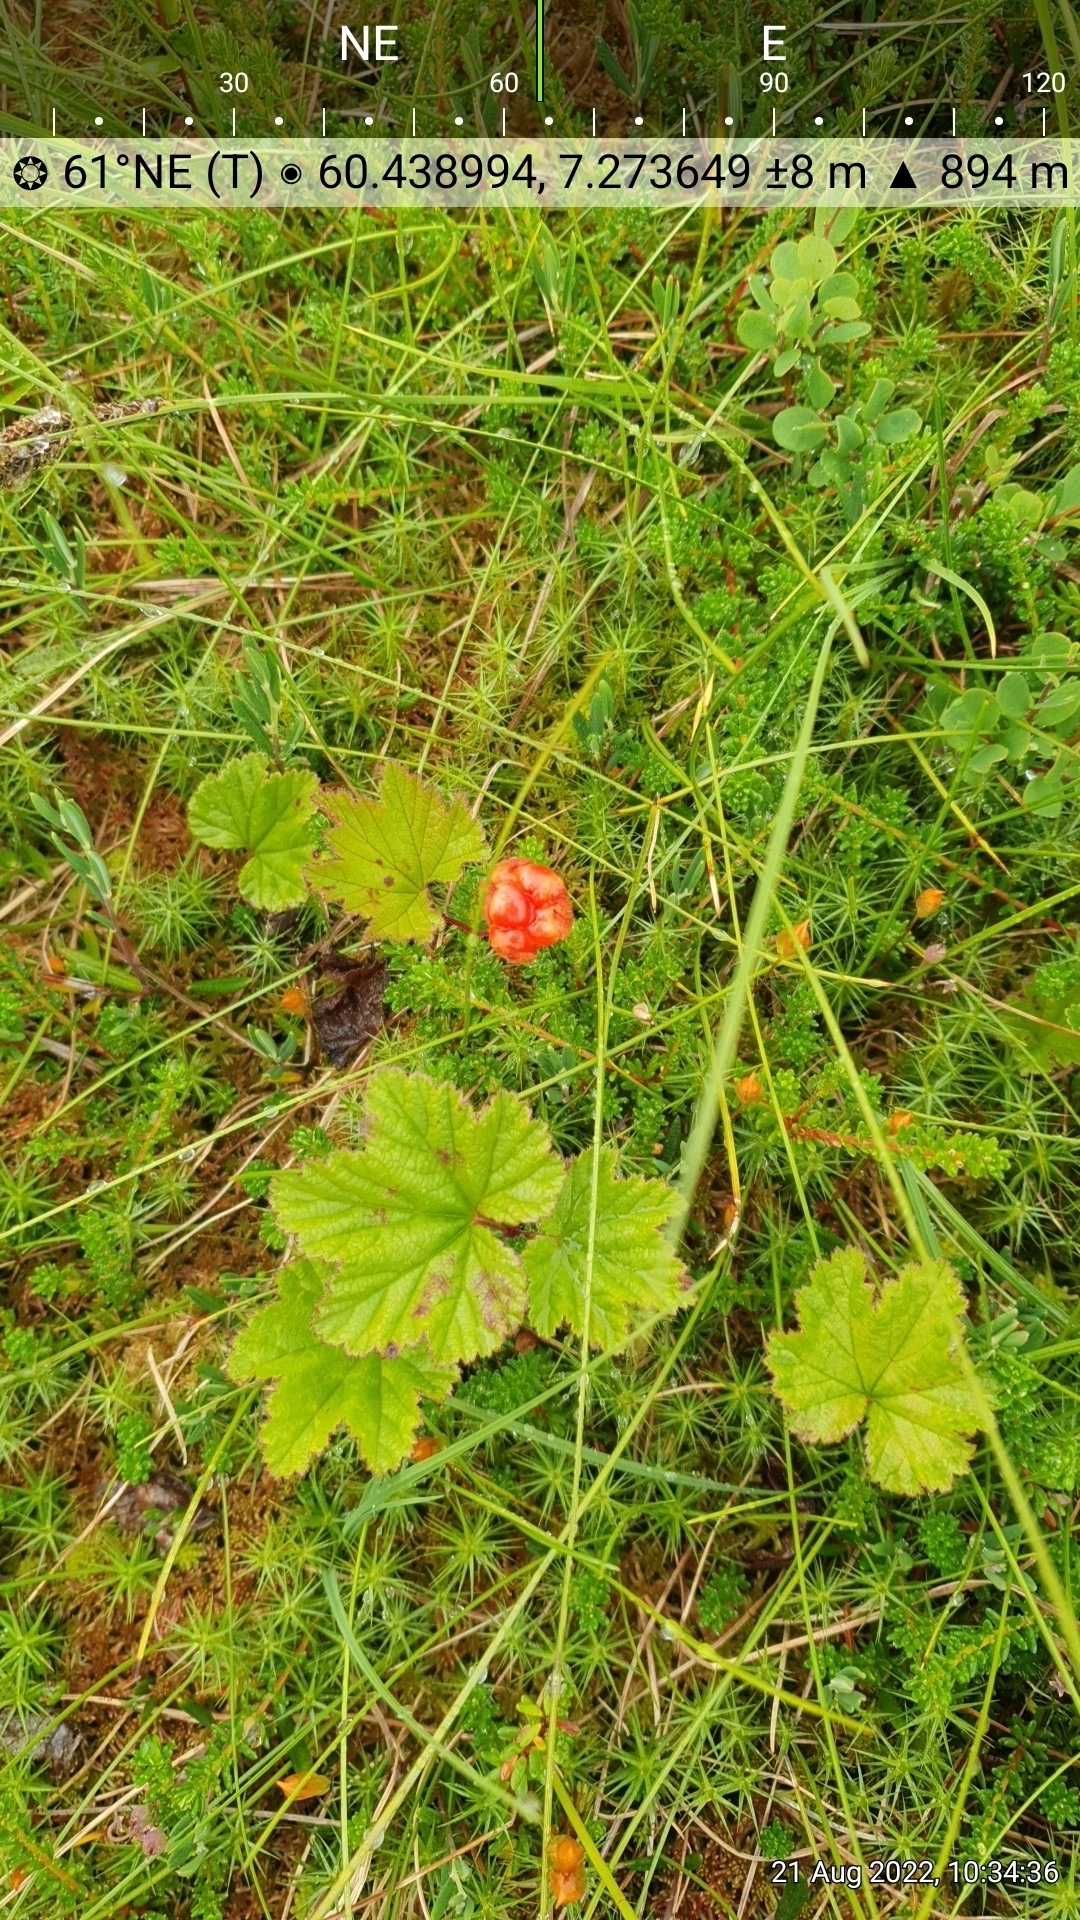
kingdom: Plantae
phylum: Tracheophyta
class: Magnoliopsida
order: Rosales
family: Rosaceae
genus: Rubus
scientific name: Rubus chamaemorus
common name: Cloudberry
